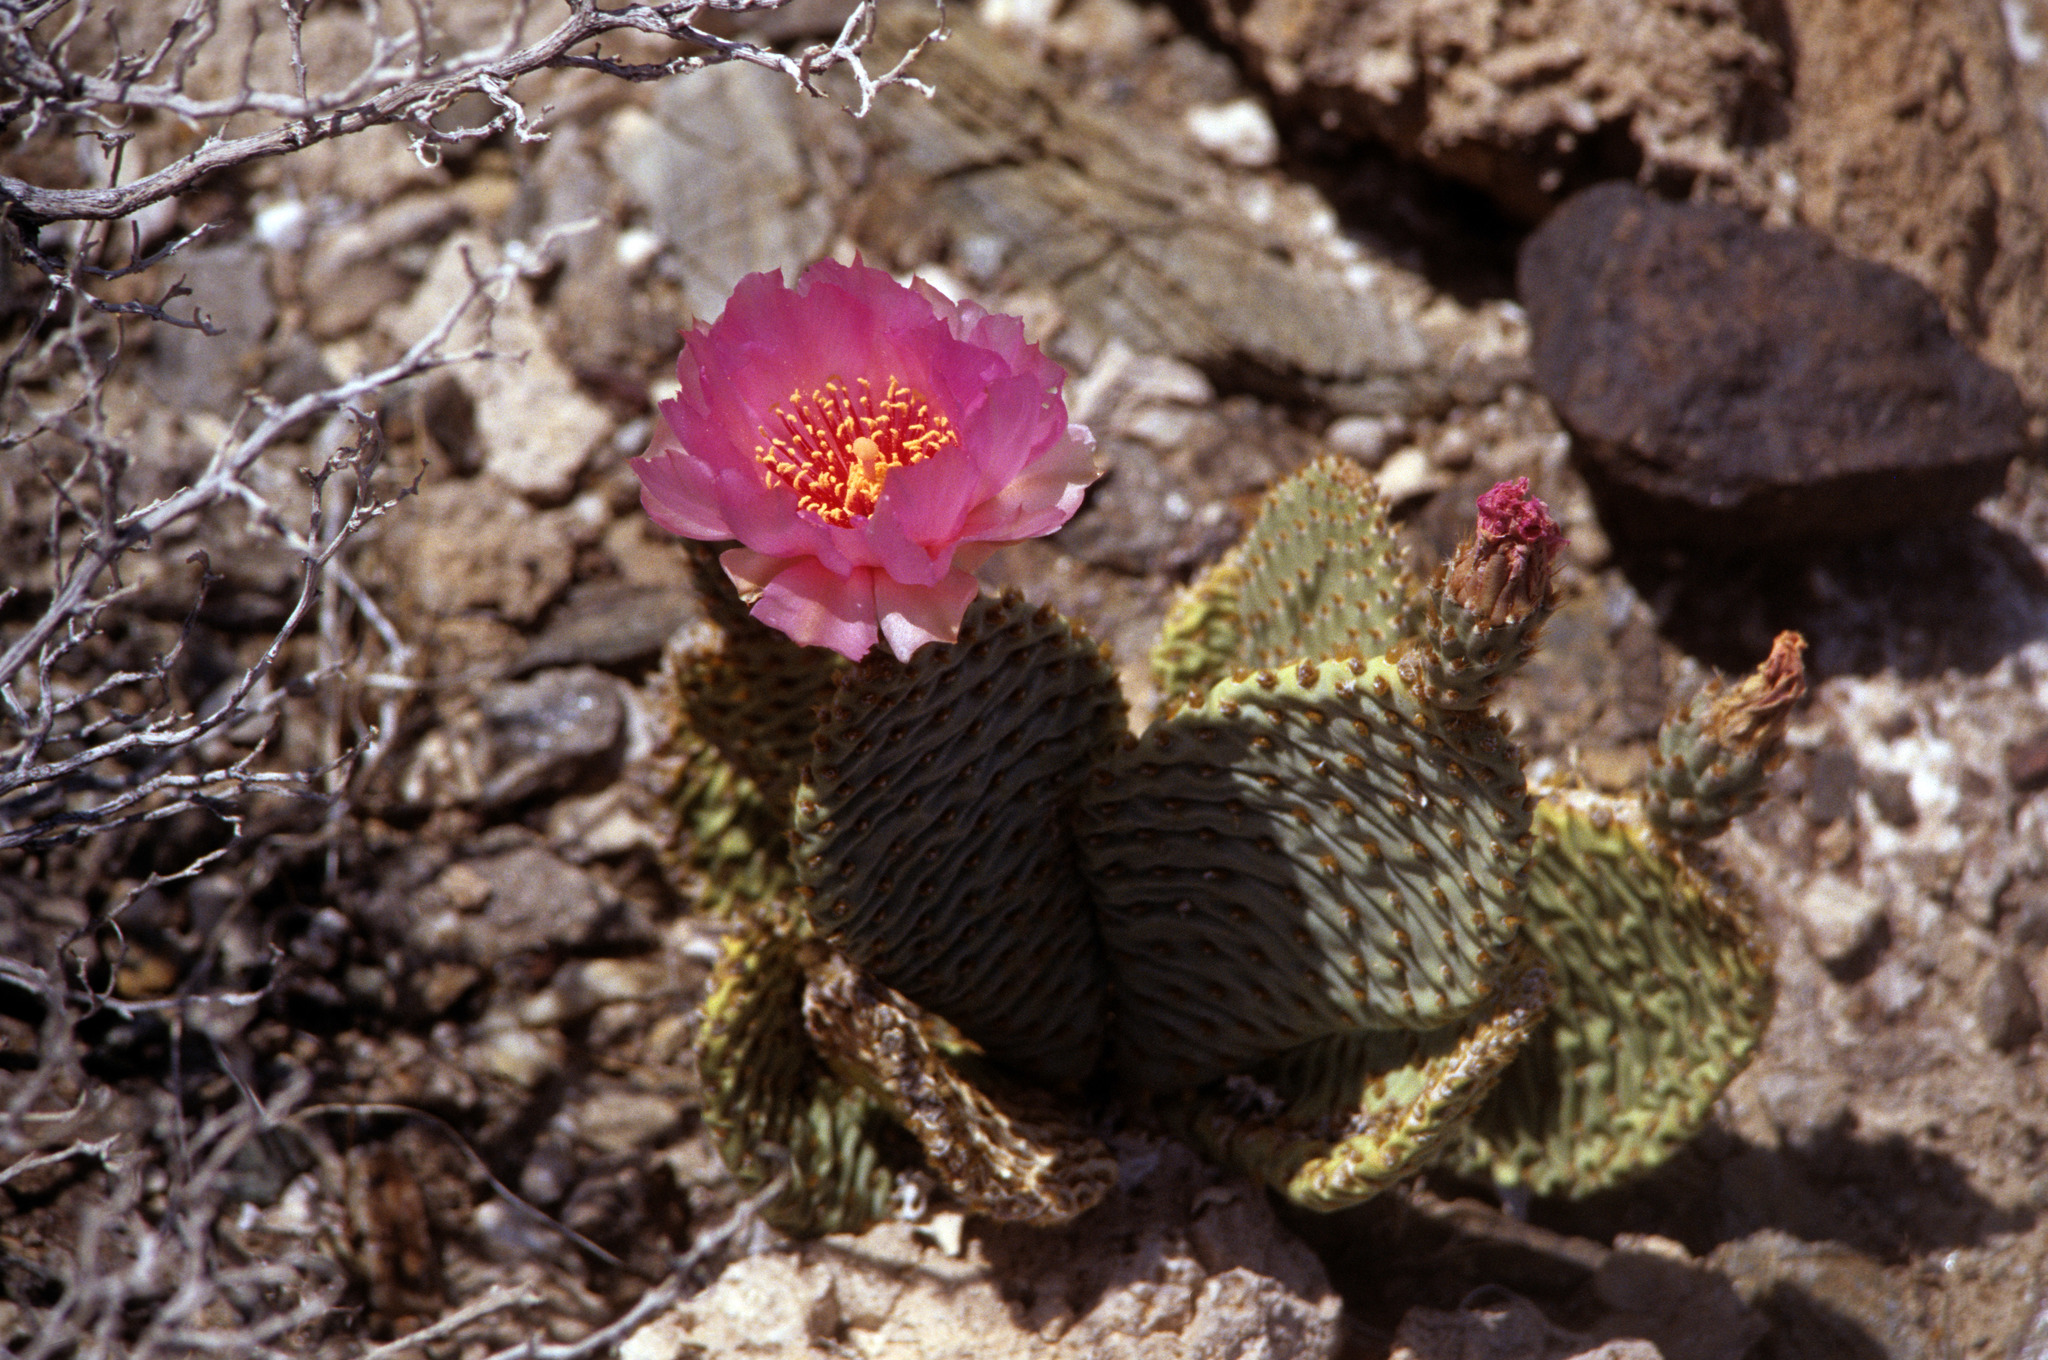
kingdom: Plantae
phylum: Tracheophyta
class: Magnoliopsida
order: Caryophyllales
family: Cactaceae
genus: Opuntia
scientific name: Opuntia basilaris
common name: Beavertail prickly-pear
